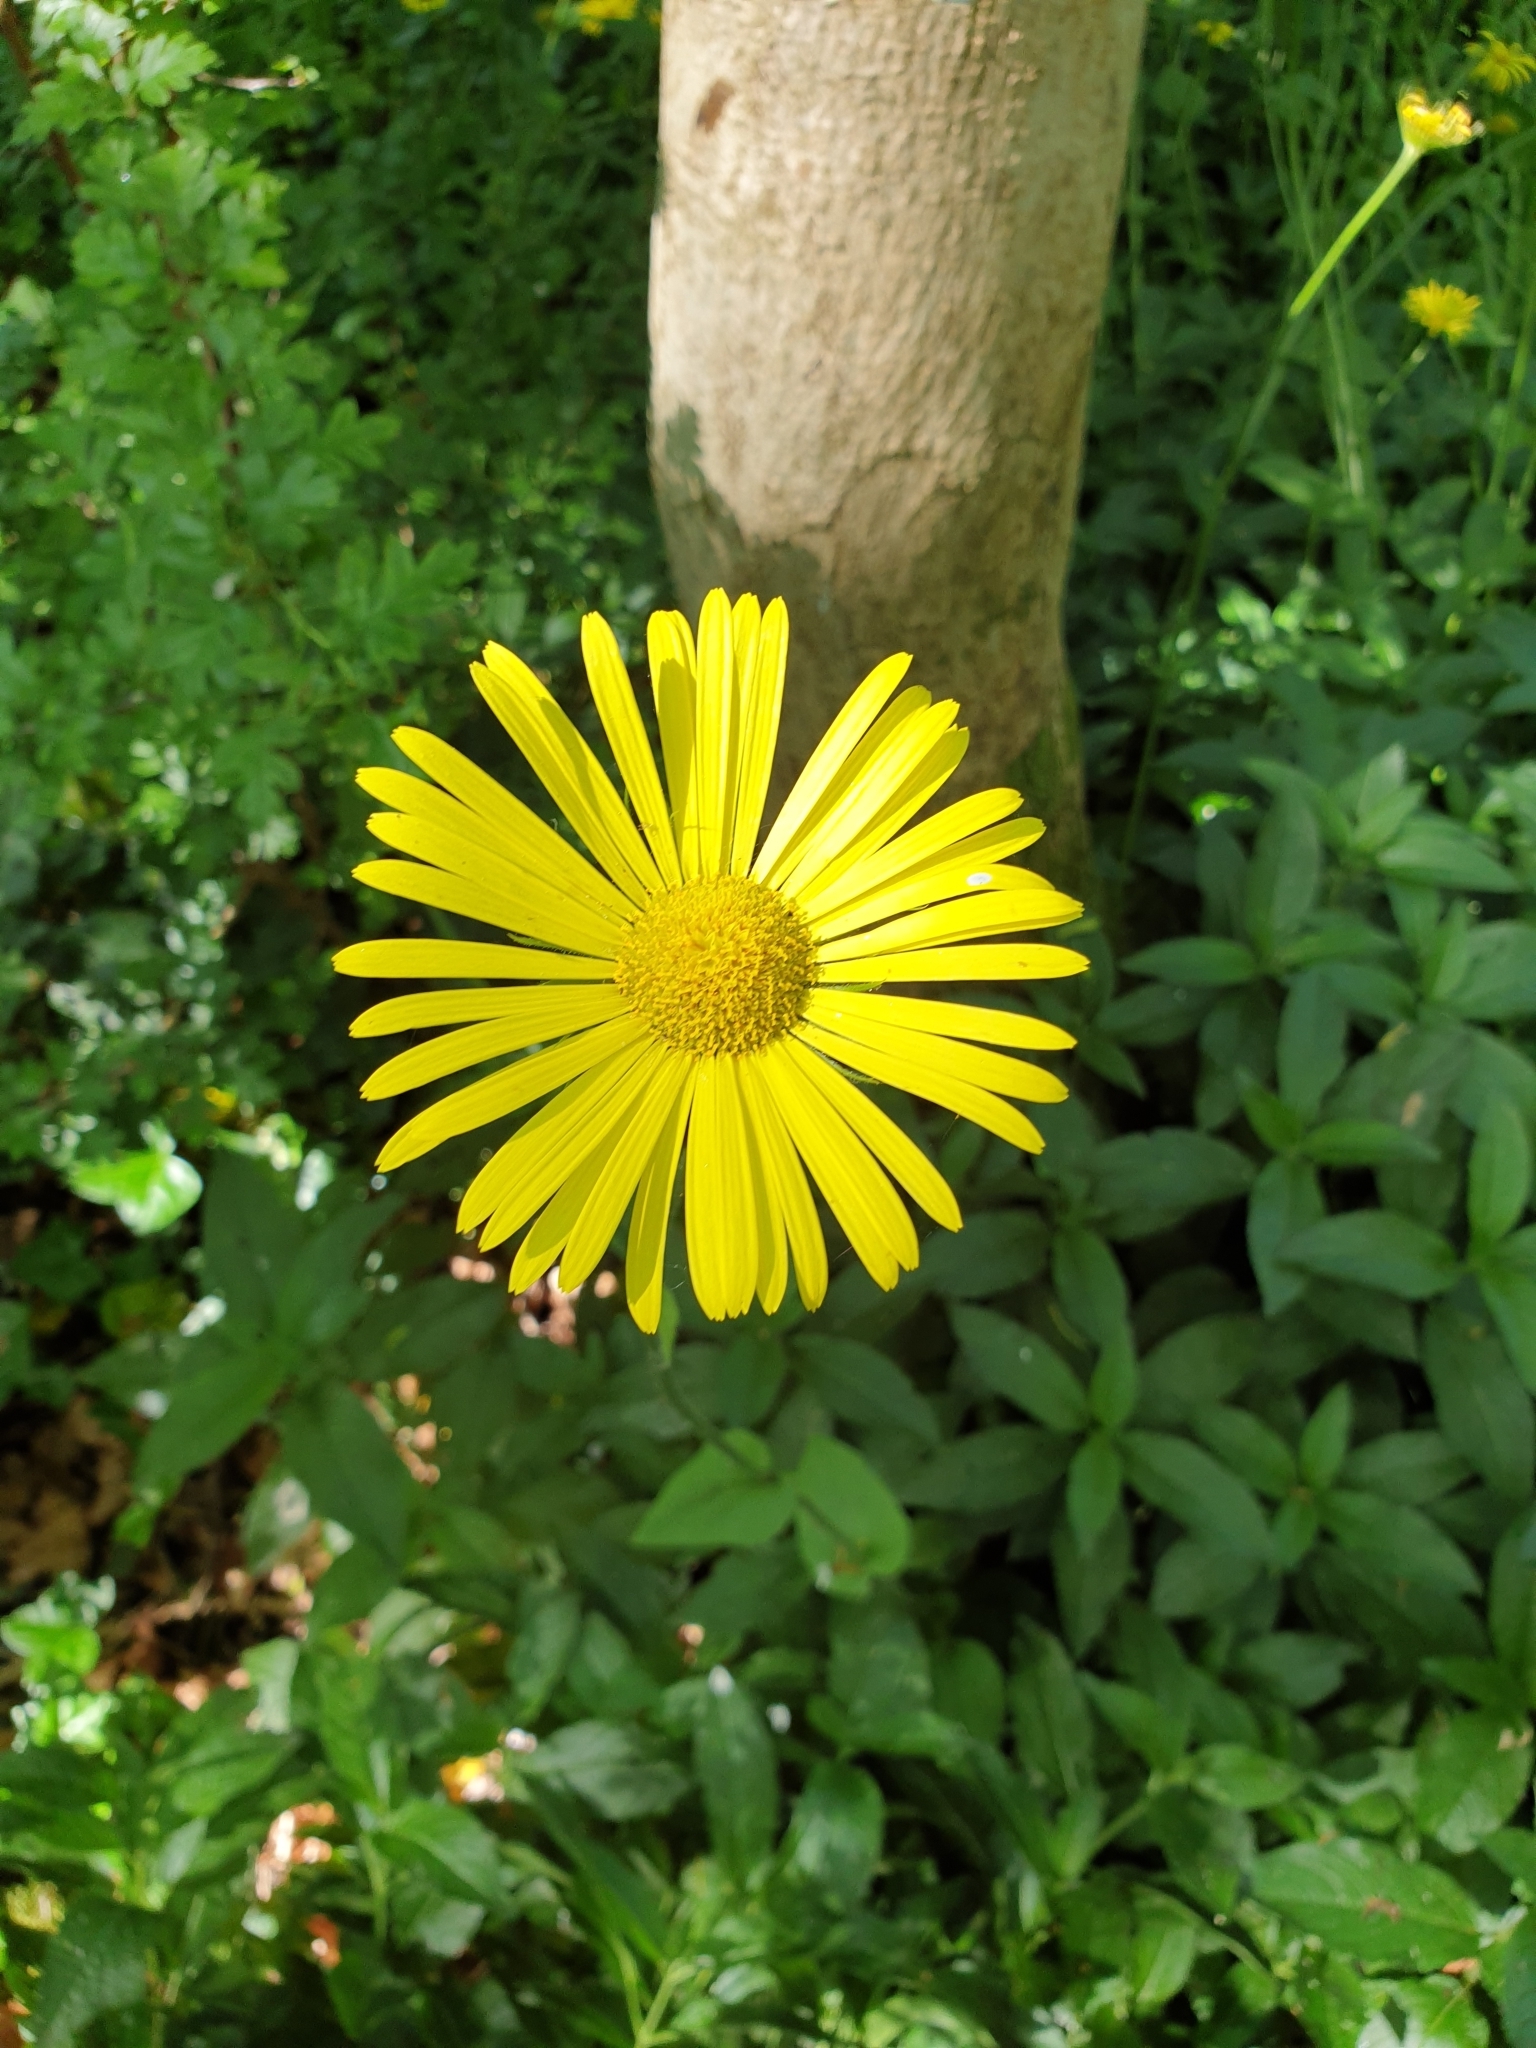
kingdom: Plantae
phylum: Tracheophyta
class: Magnoliopsida
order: Asterales
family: Asteraceae
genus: Doronicum
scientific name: Doronicum pardalianches
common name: Leopard's-bane
